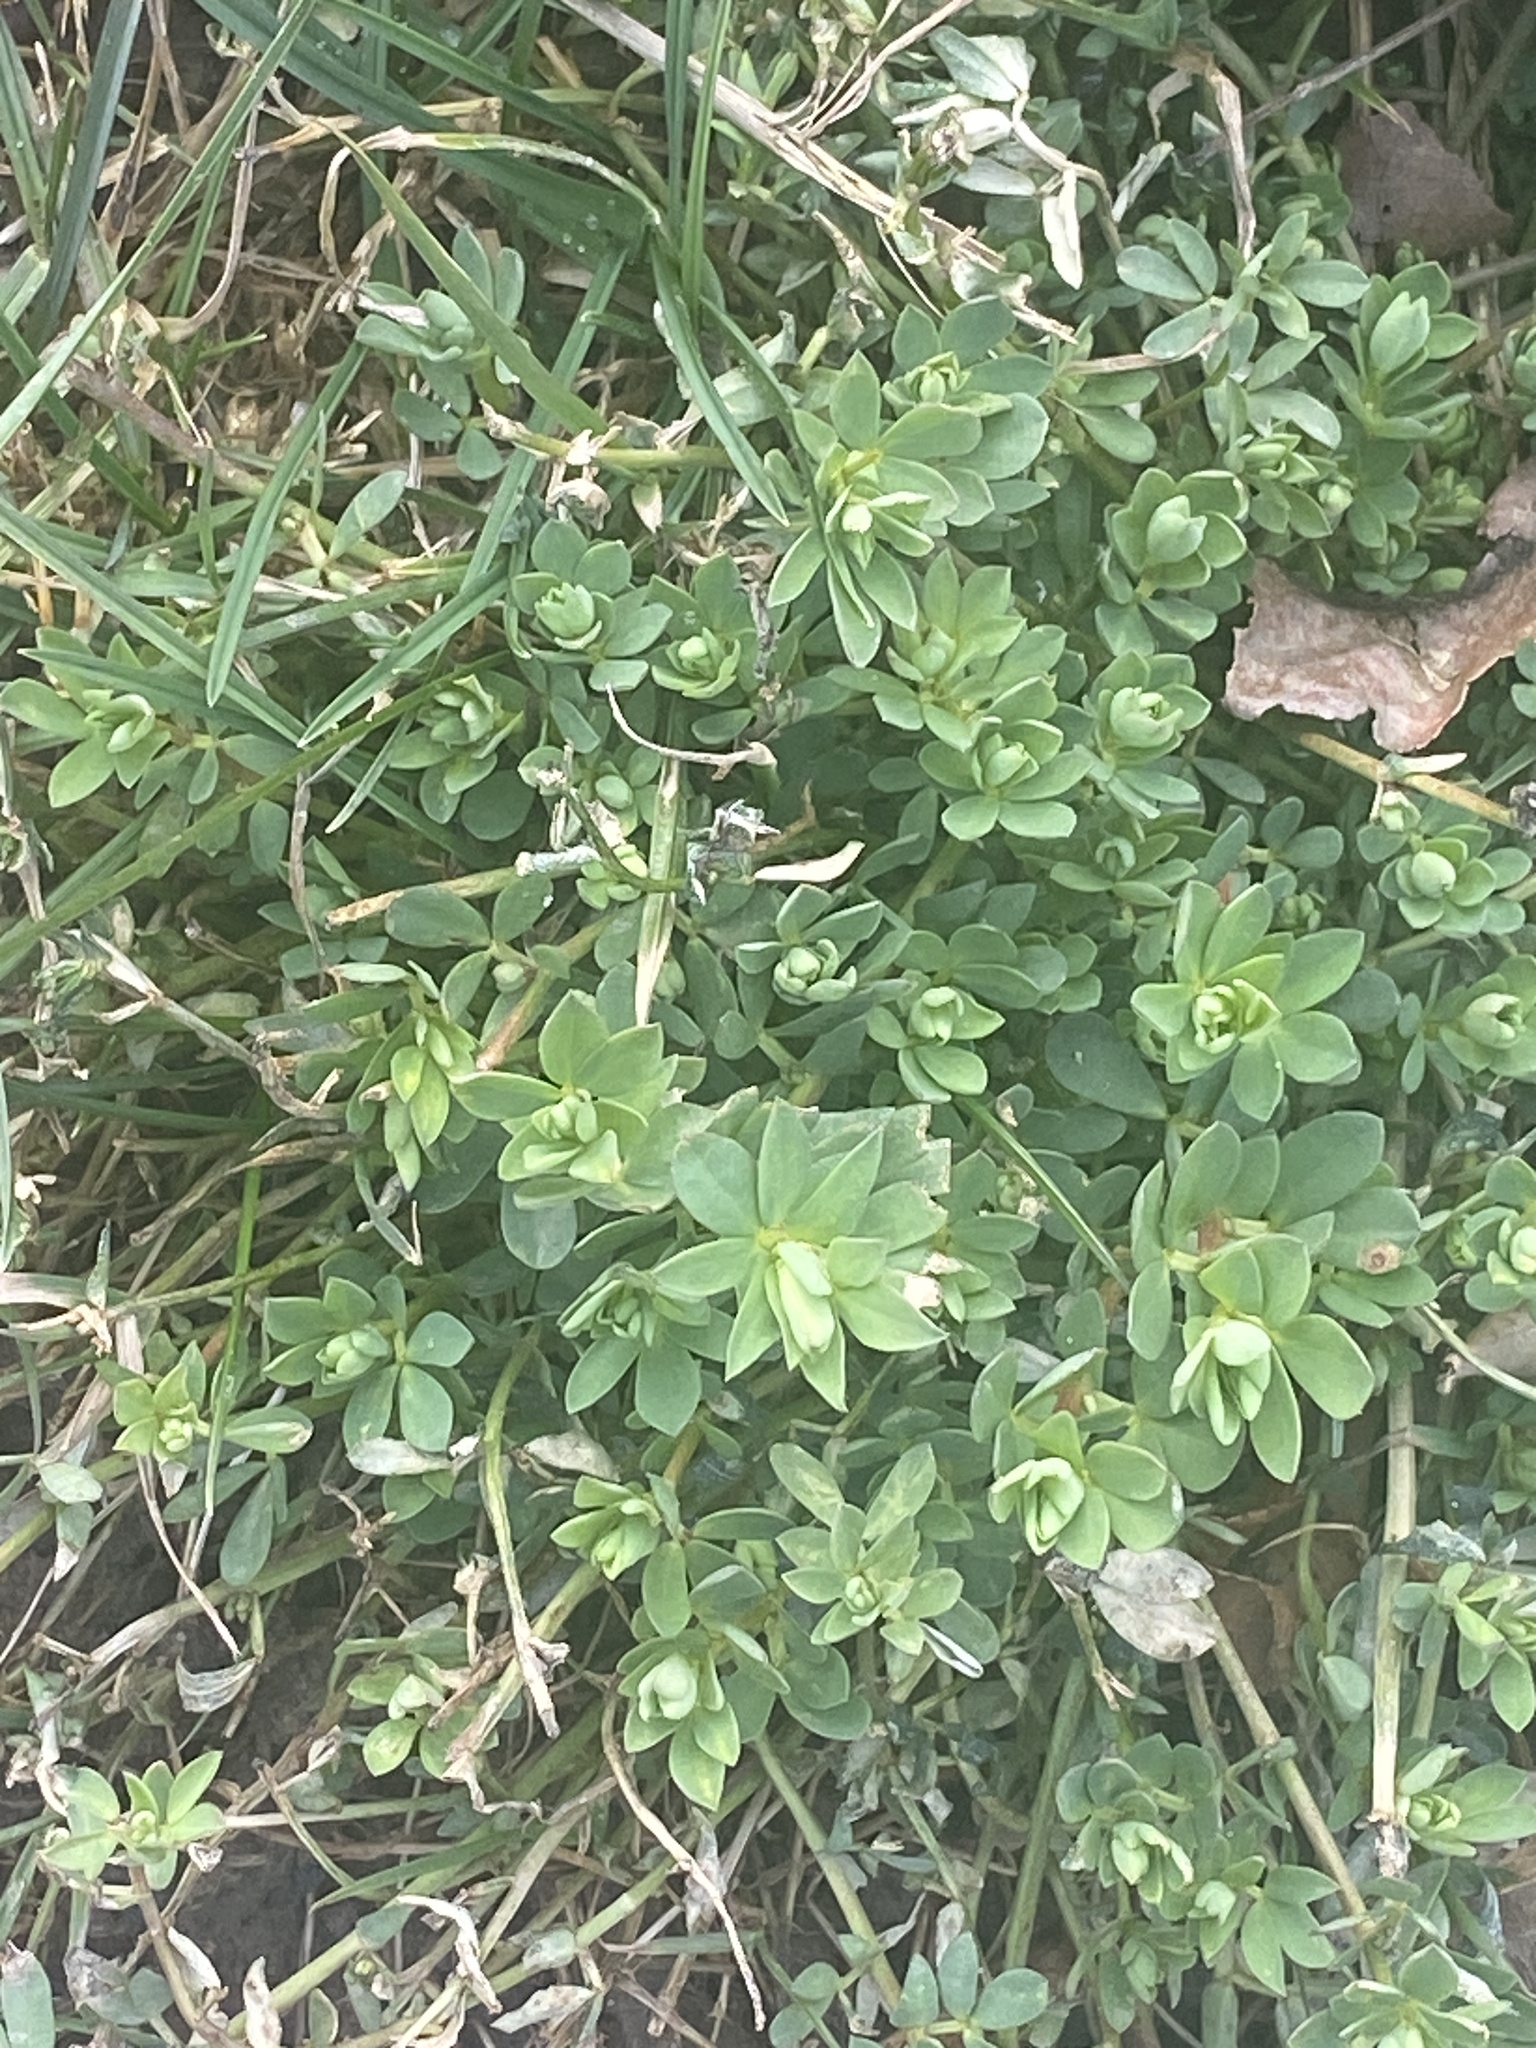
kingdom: Plantae
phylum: Tracheophyta
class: Magnoliopsida
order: Fabales
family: Fabaceae
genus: Lotus
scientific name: Lotus corniculatus
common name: Common bird's-foot-trefoil
